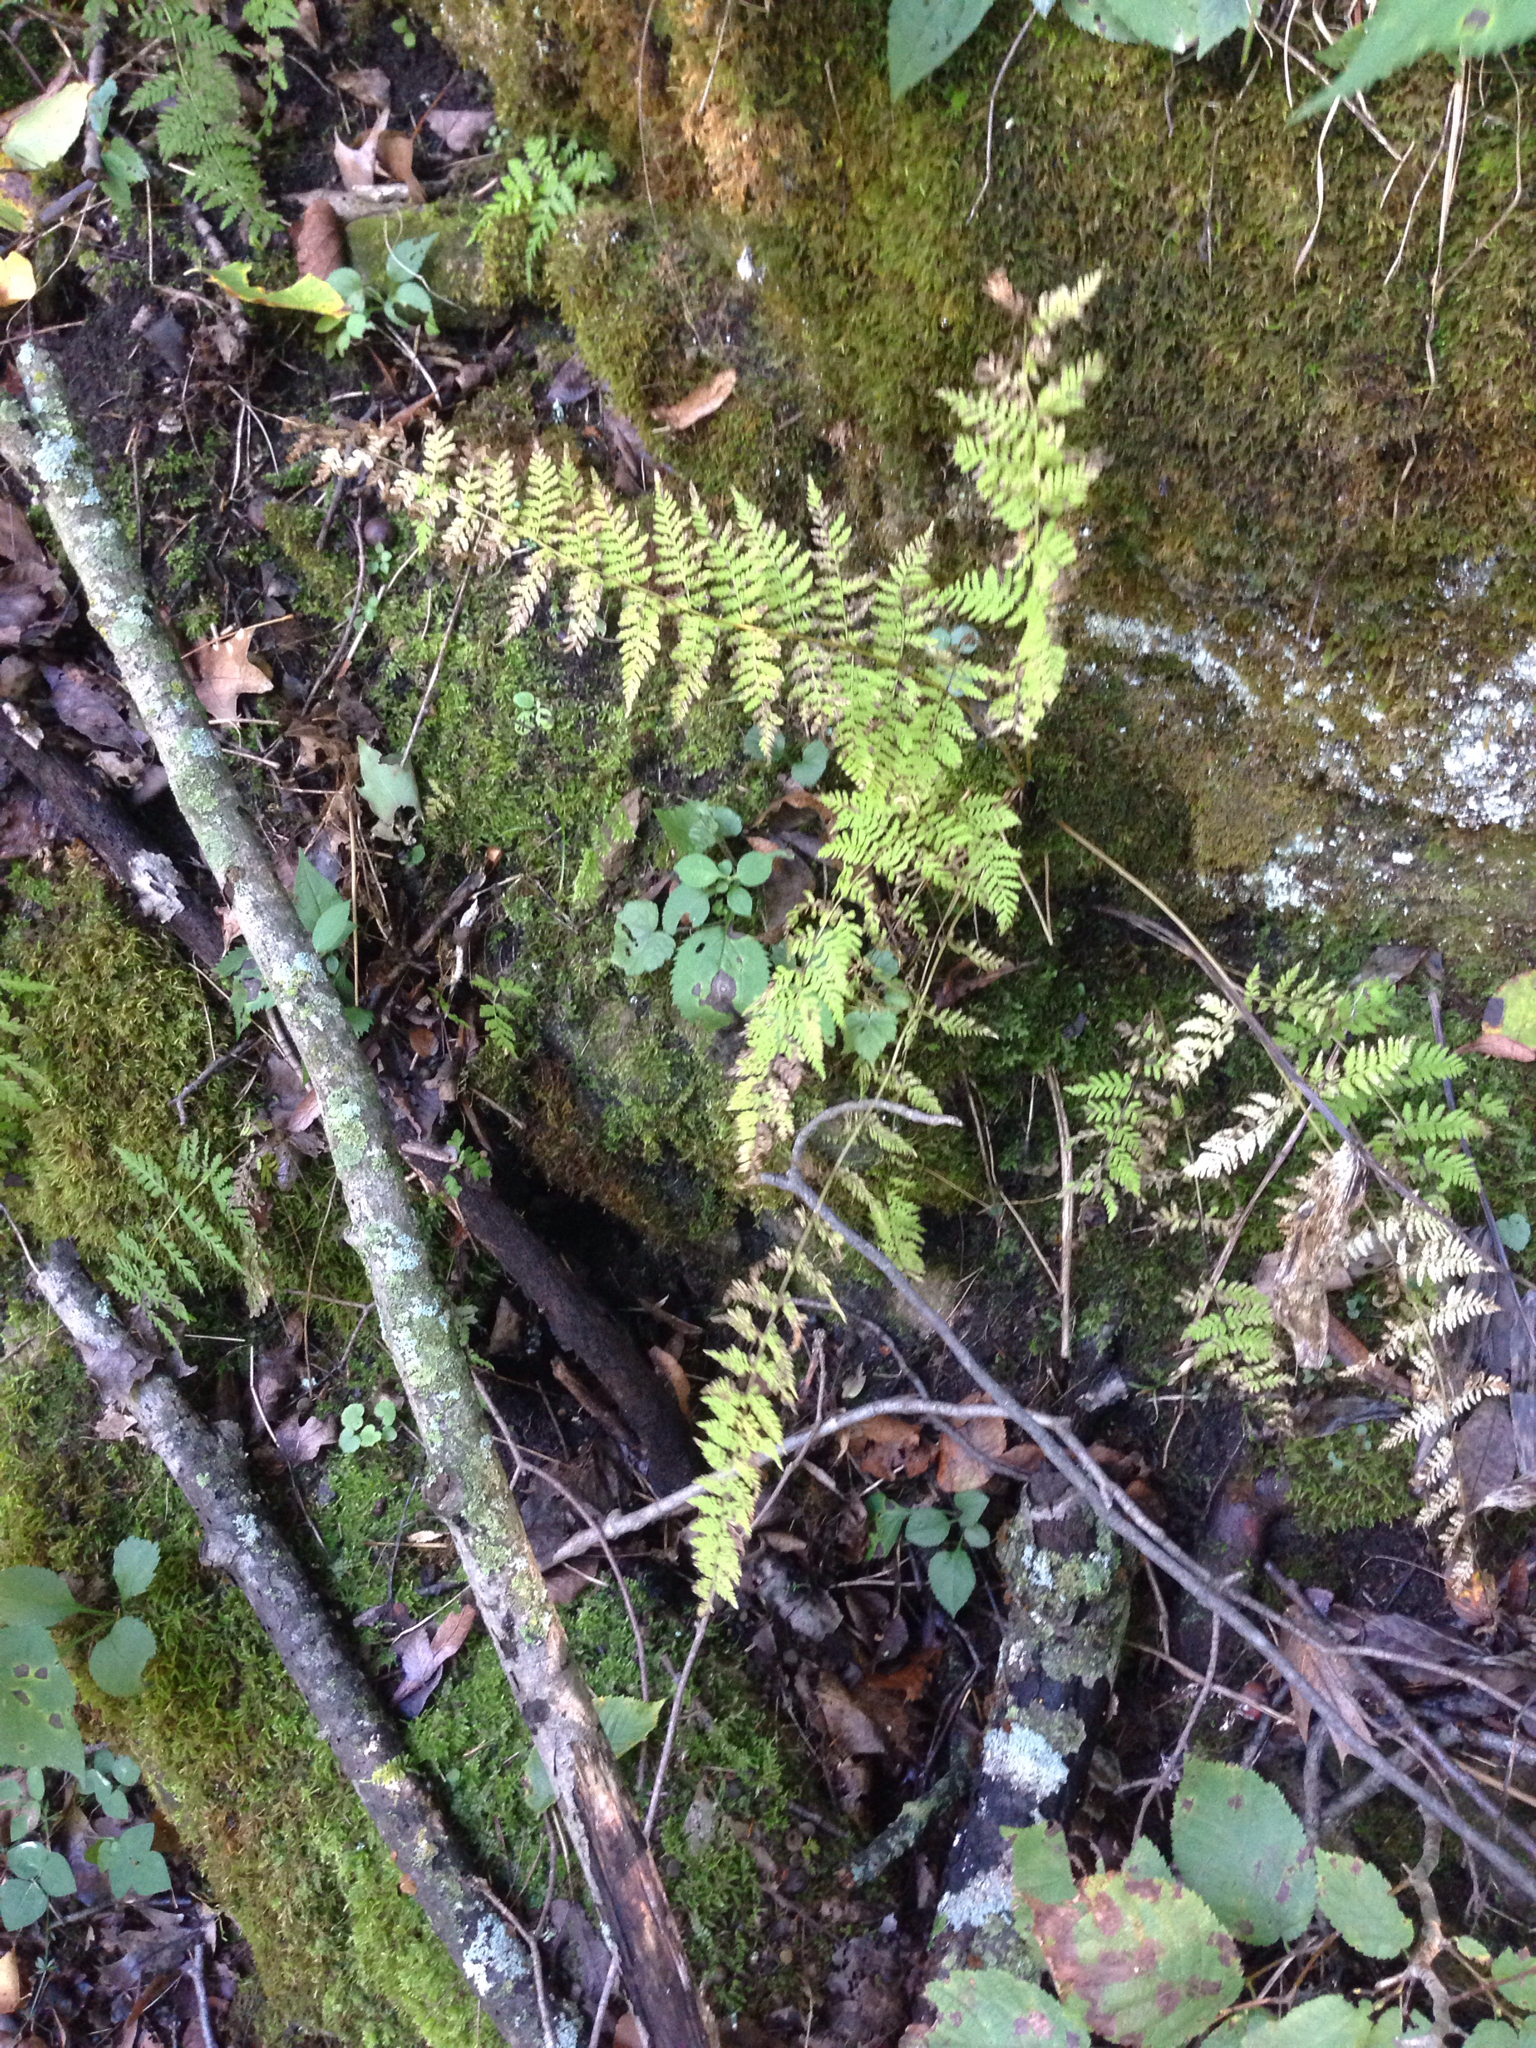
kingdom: Plantae
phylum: Tracheophyta
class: Polypodiopsida
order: Polypodiales
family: Cystopteridaceae
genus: Cystopteris
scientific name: Cystopteris bulbifera
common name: Bulblet bladder fern
